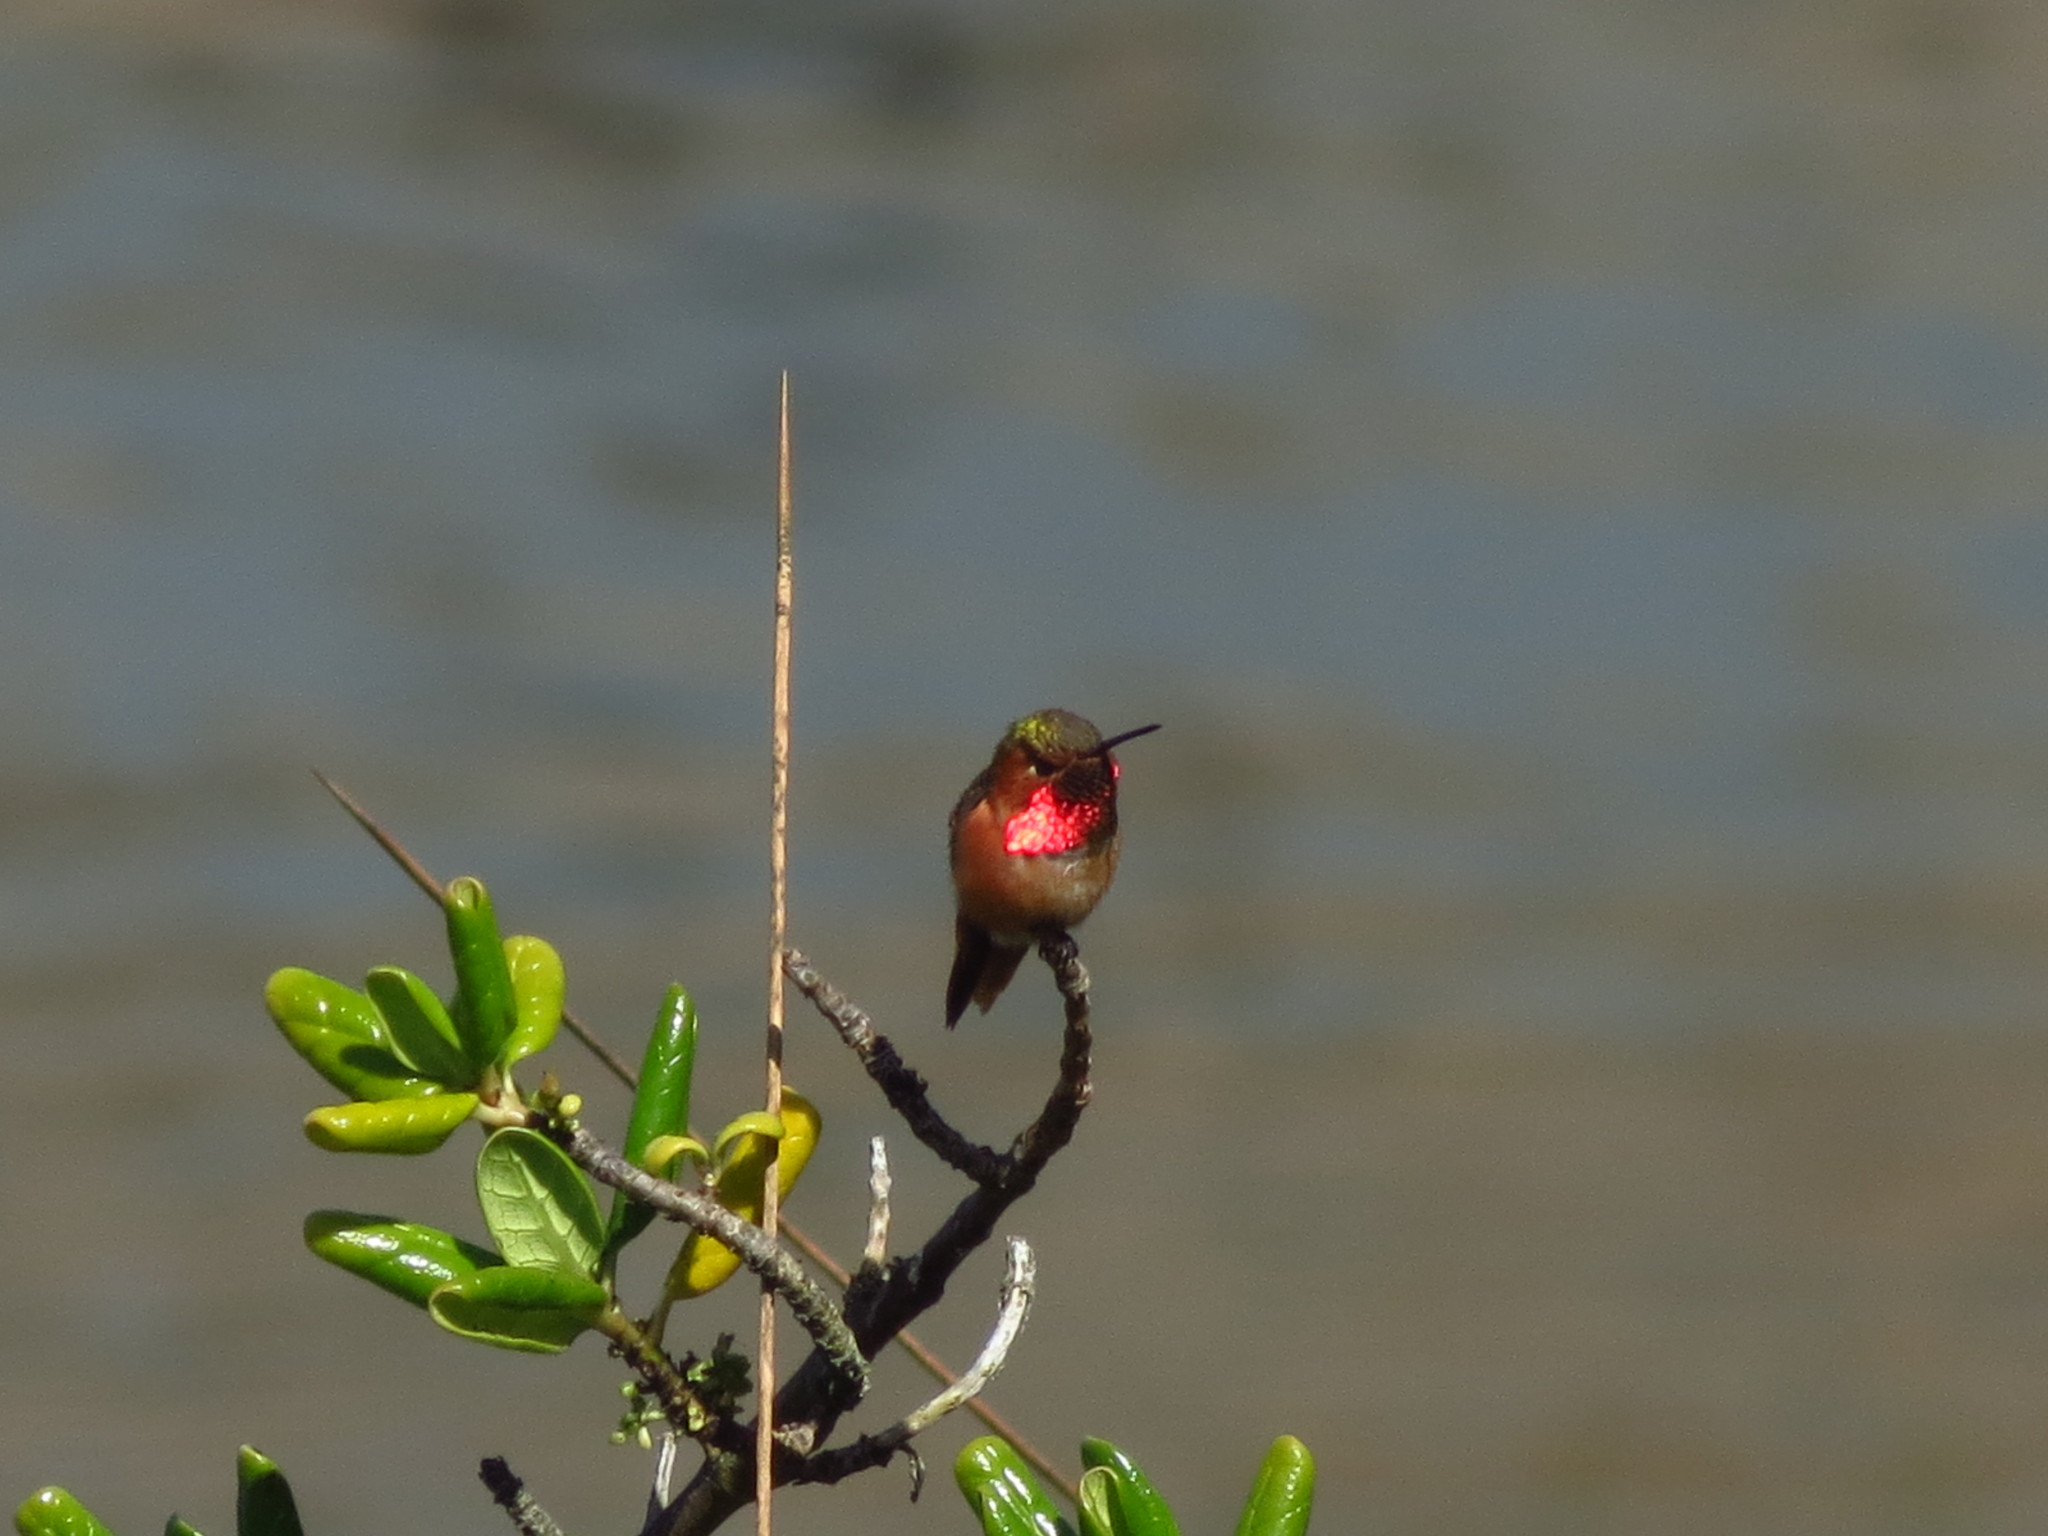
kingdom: Animalia
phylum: Chordata
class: Aves
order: Apodiformes
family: Trochilidae
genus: Selasphorus
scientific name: Selasphorus sasin
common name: Allen's hummingbird
